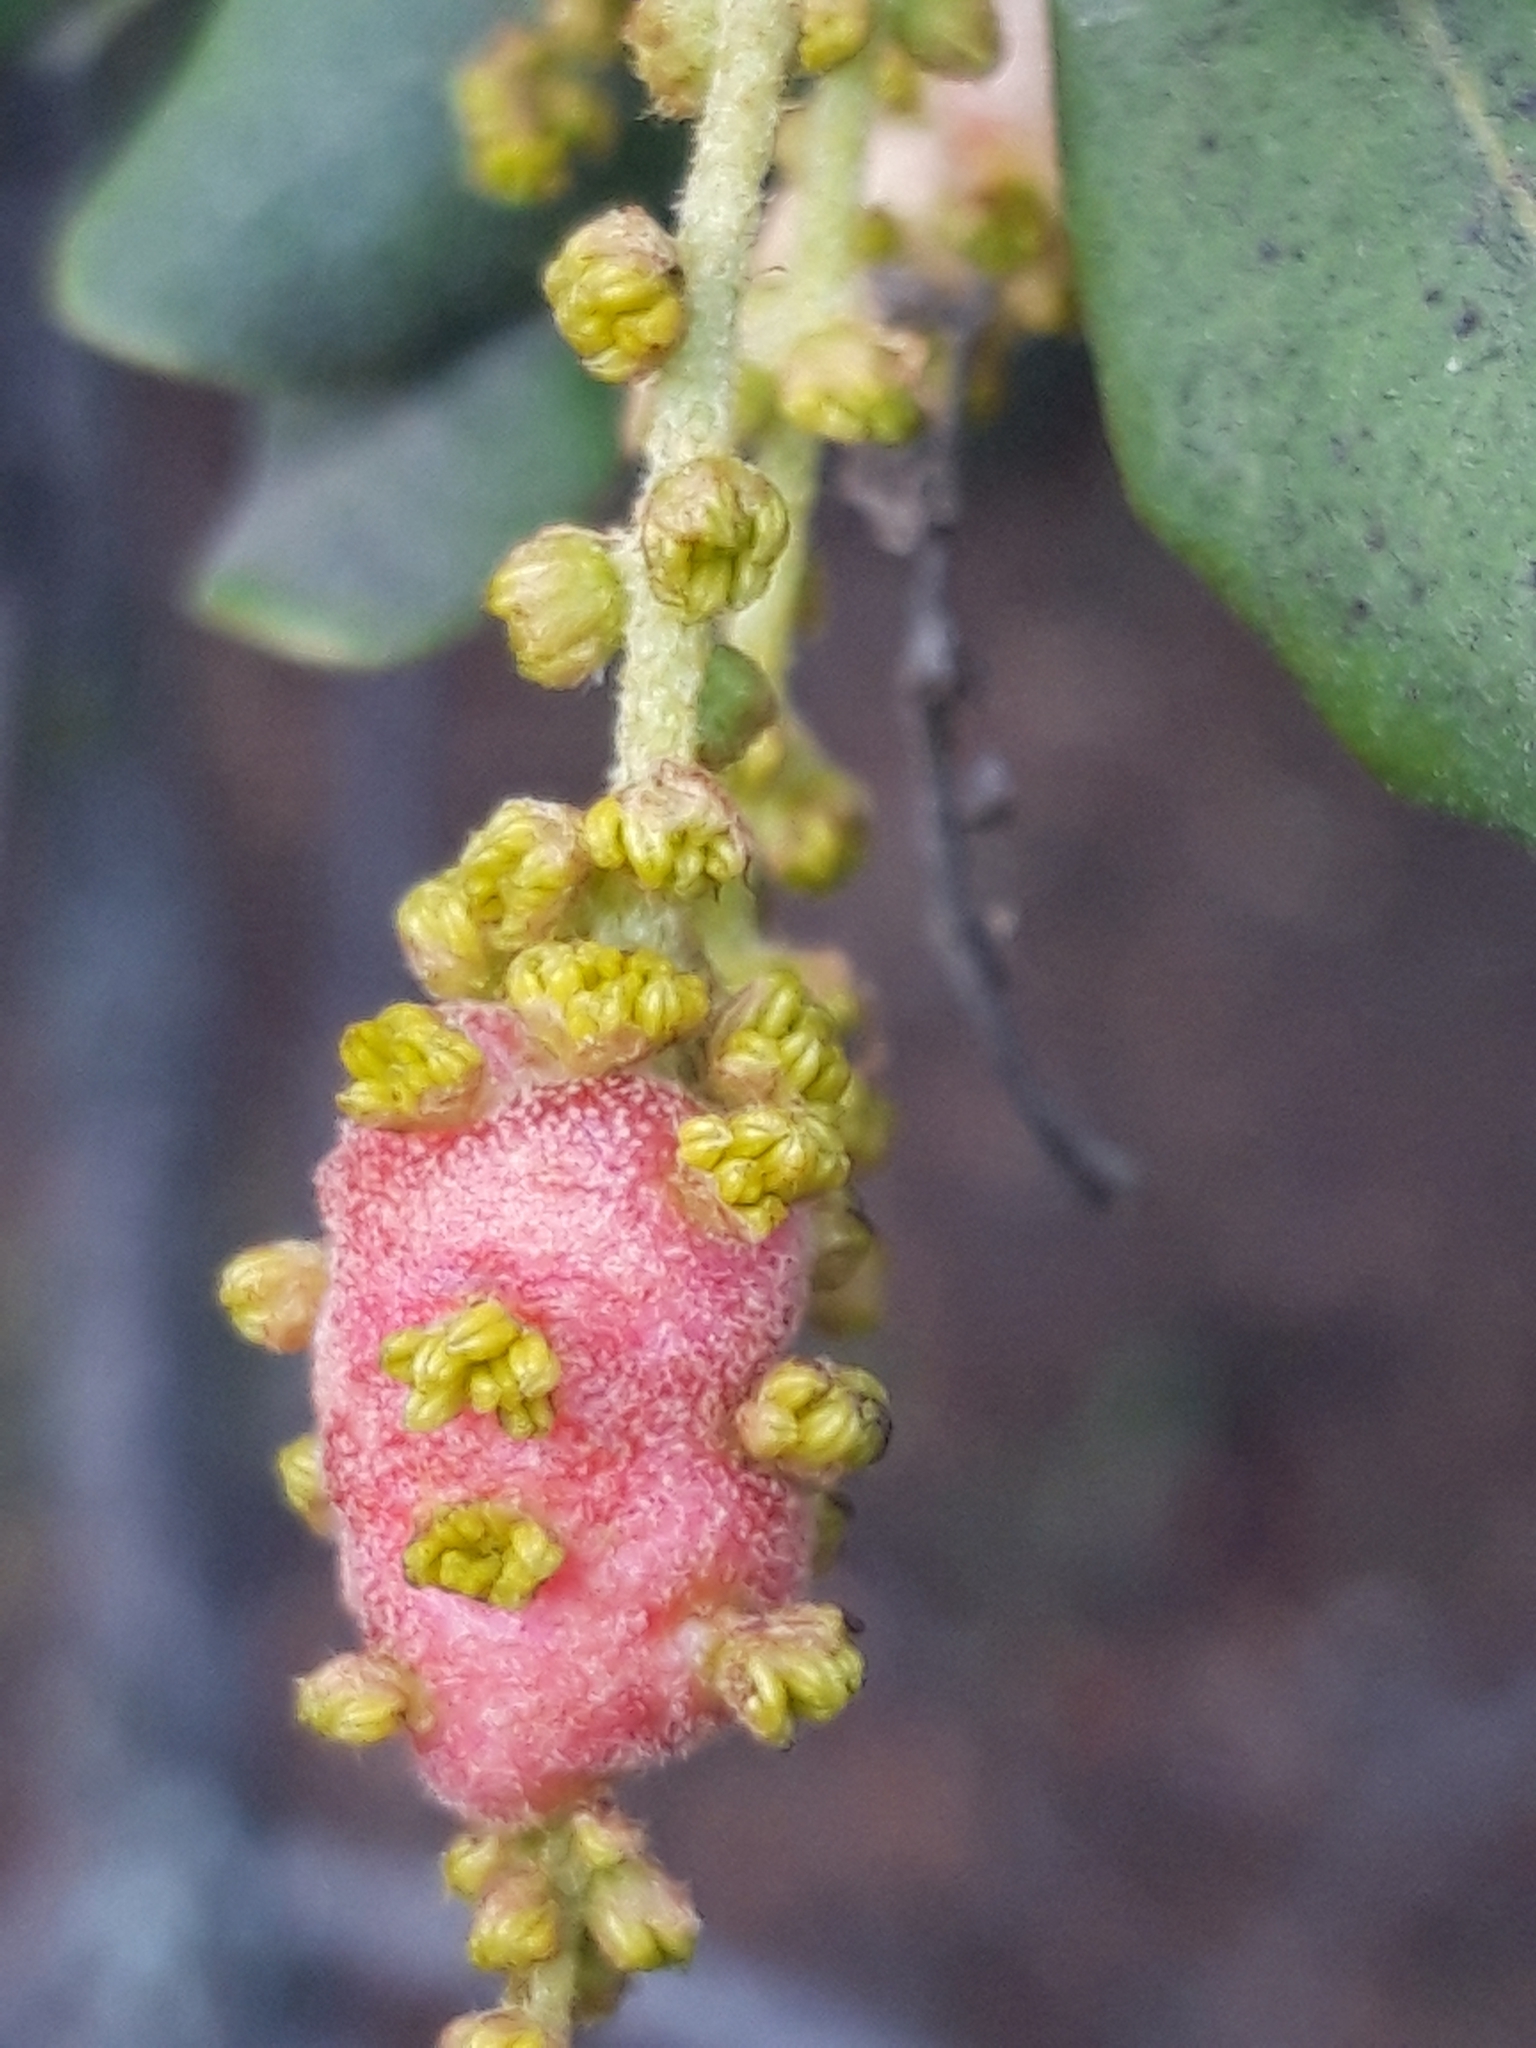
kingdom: Animalia
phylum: Arthropoda
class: Insecta
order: Hymenoptera
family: Cynipidae
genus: Plagiotrochus
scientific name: Plagiotrochus quercusilicis
